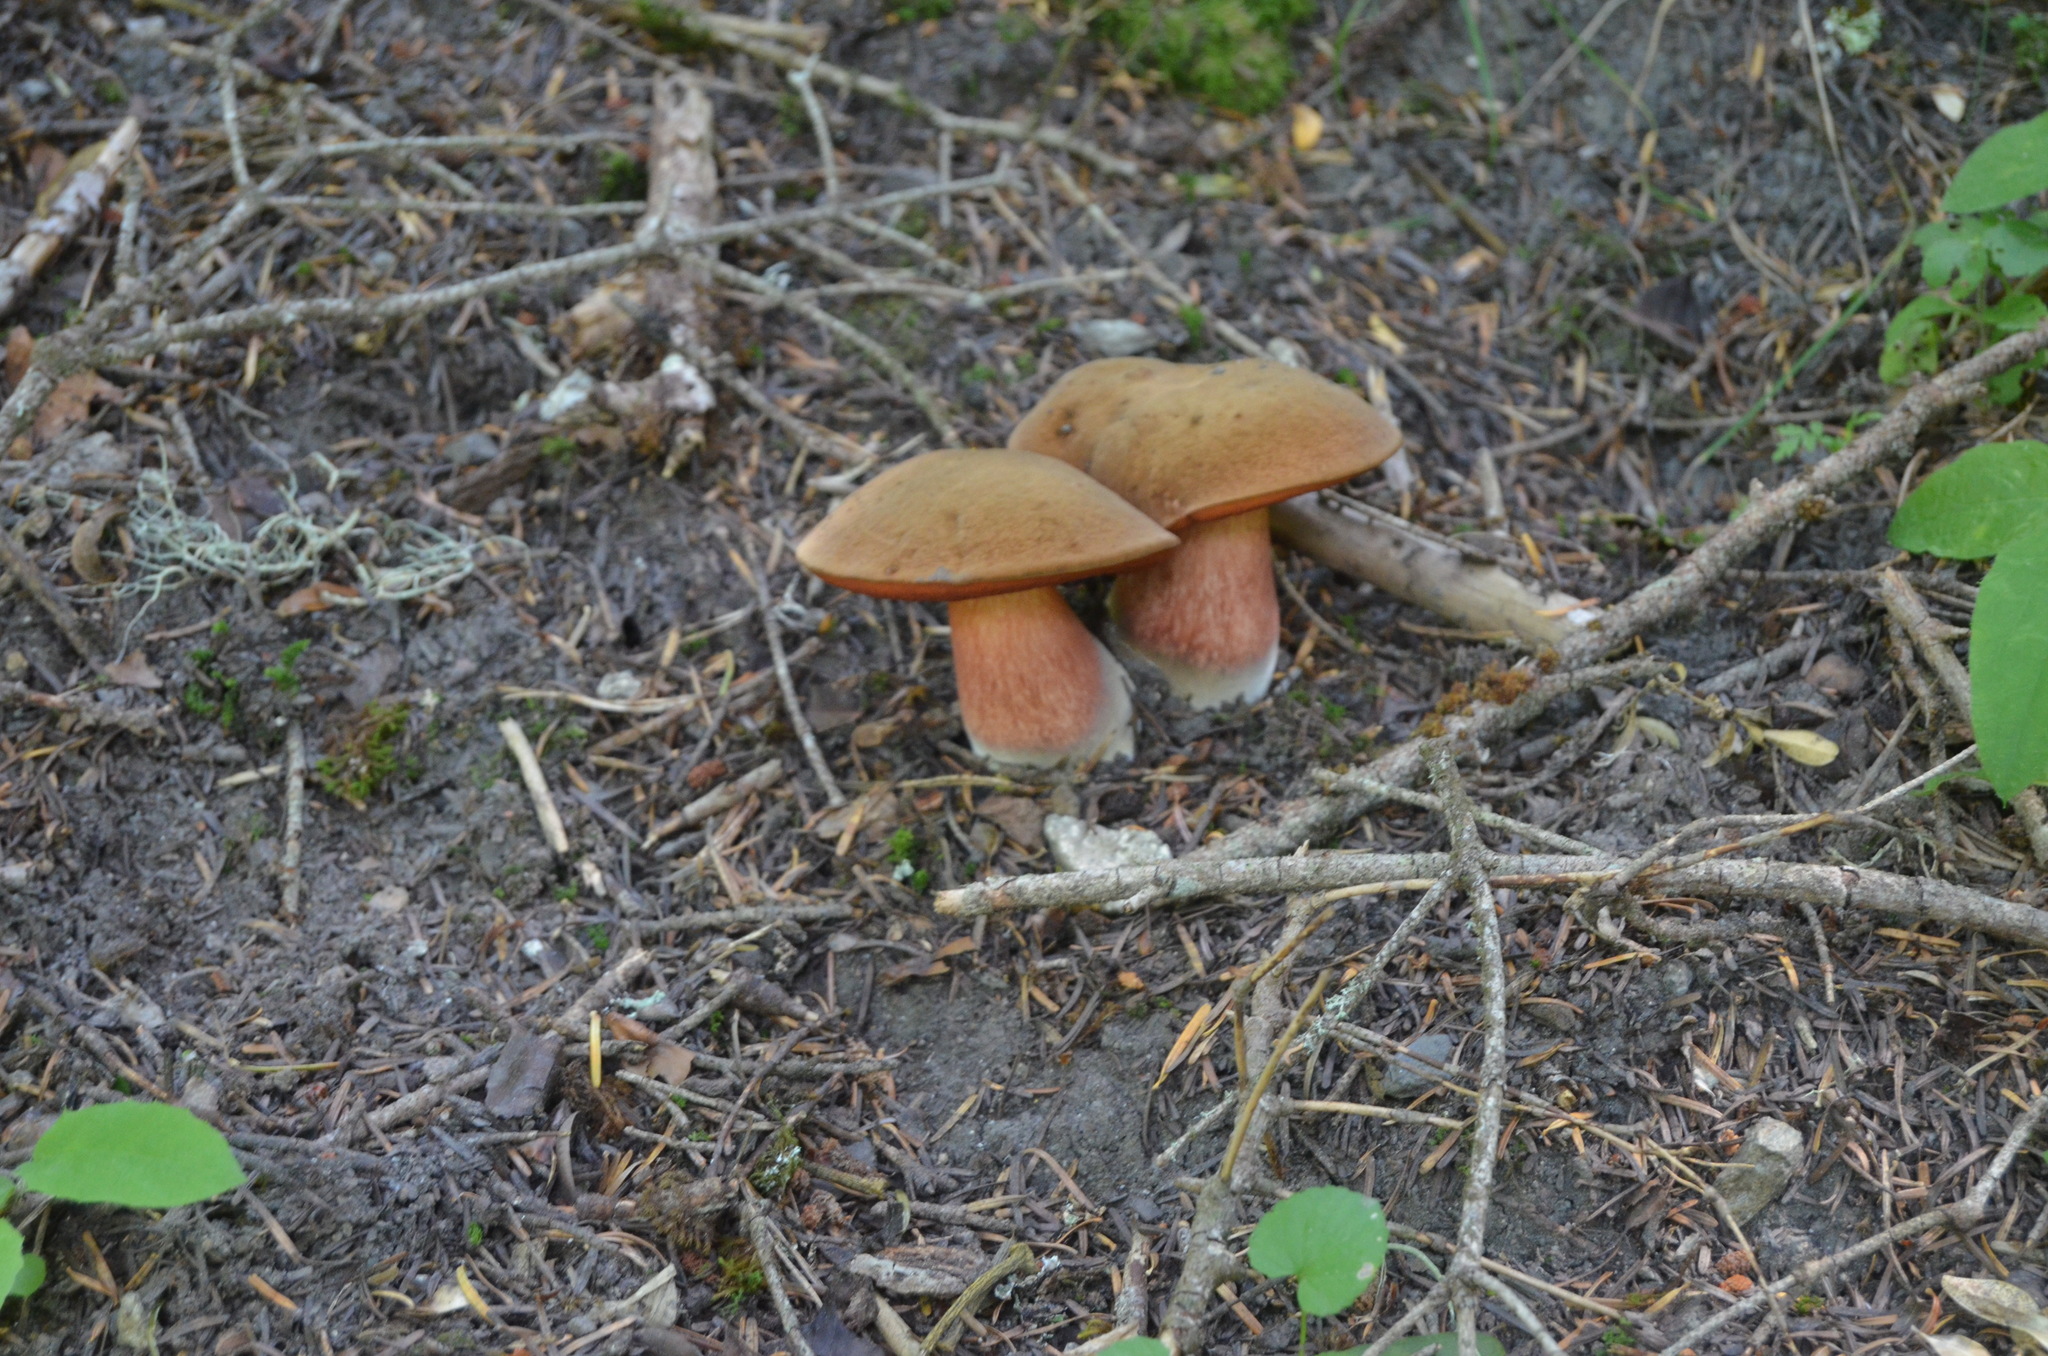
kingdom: Fungi
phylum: Basidiomycota
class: Agaricomycetes
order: Boletales
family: Boletaceae
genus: Suillellus
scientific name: Suillellus luridus
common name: Lurid bolete
